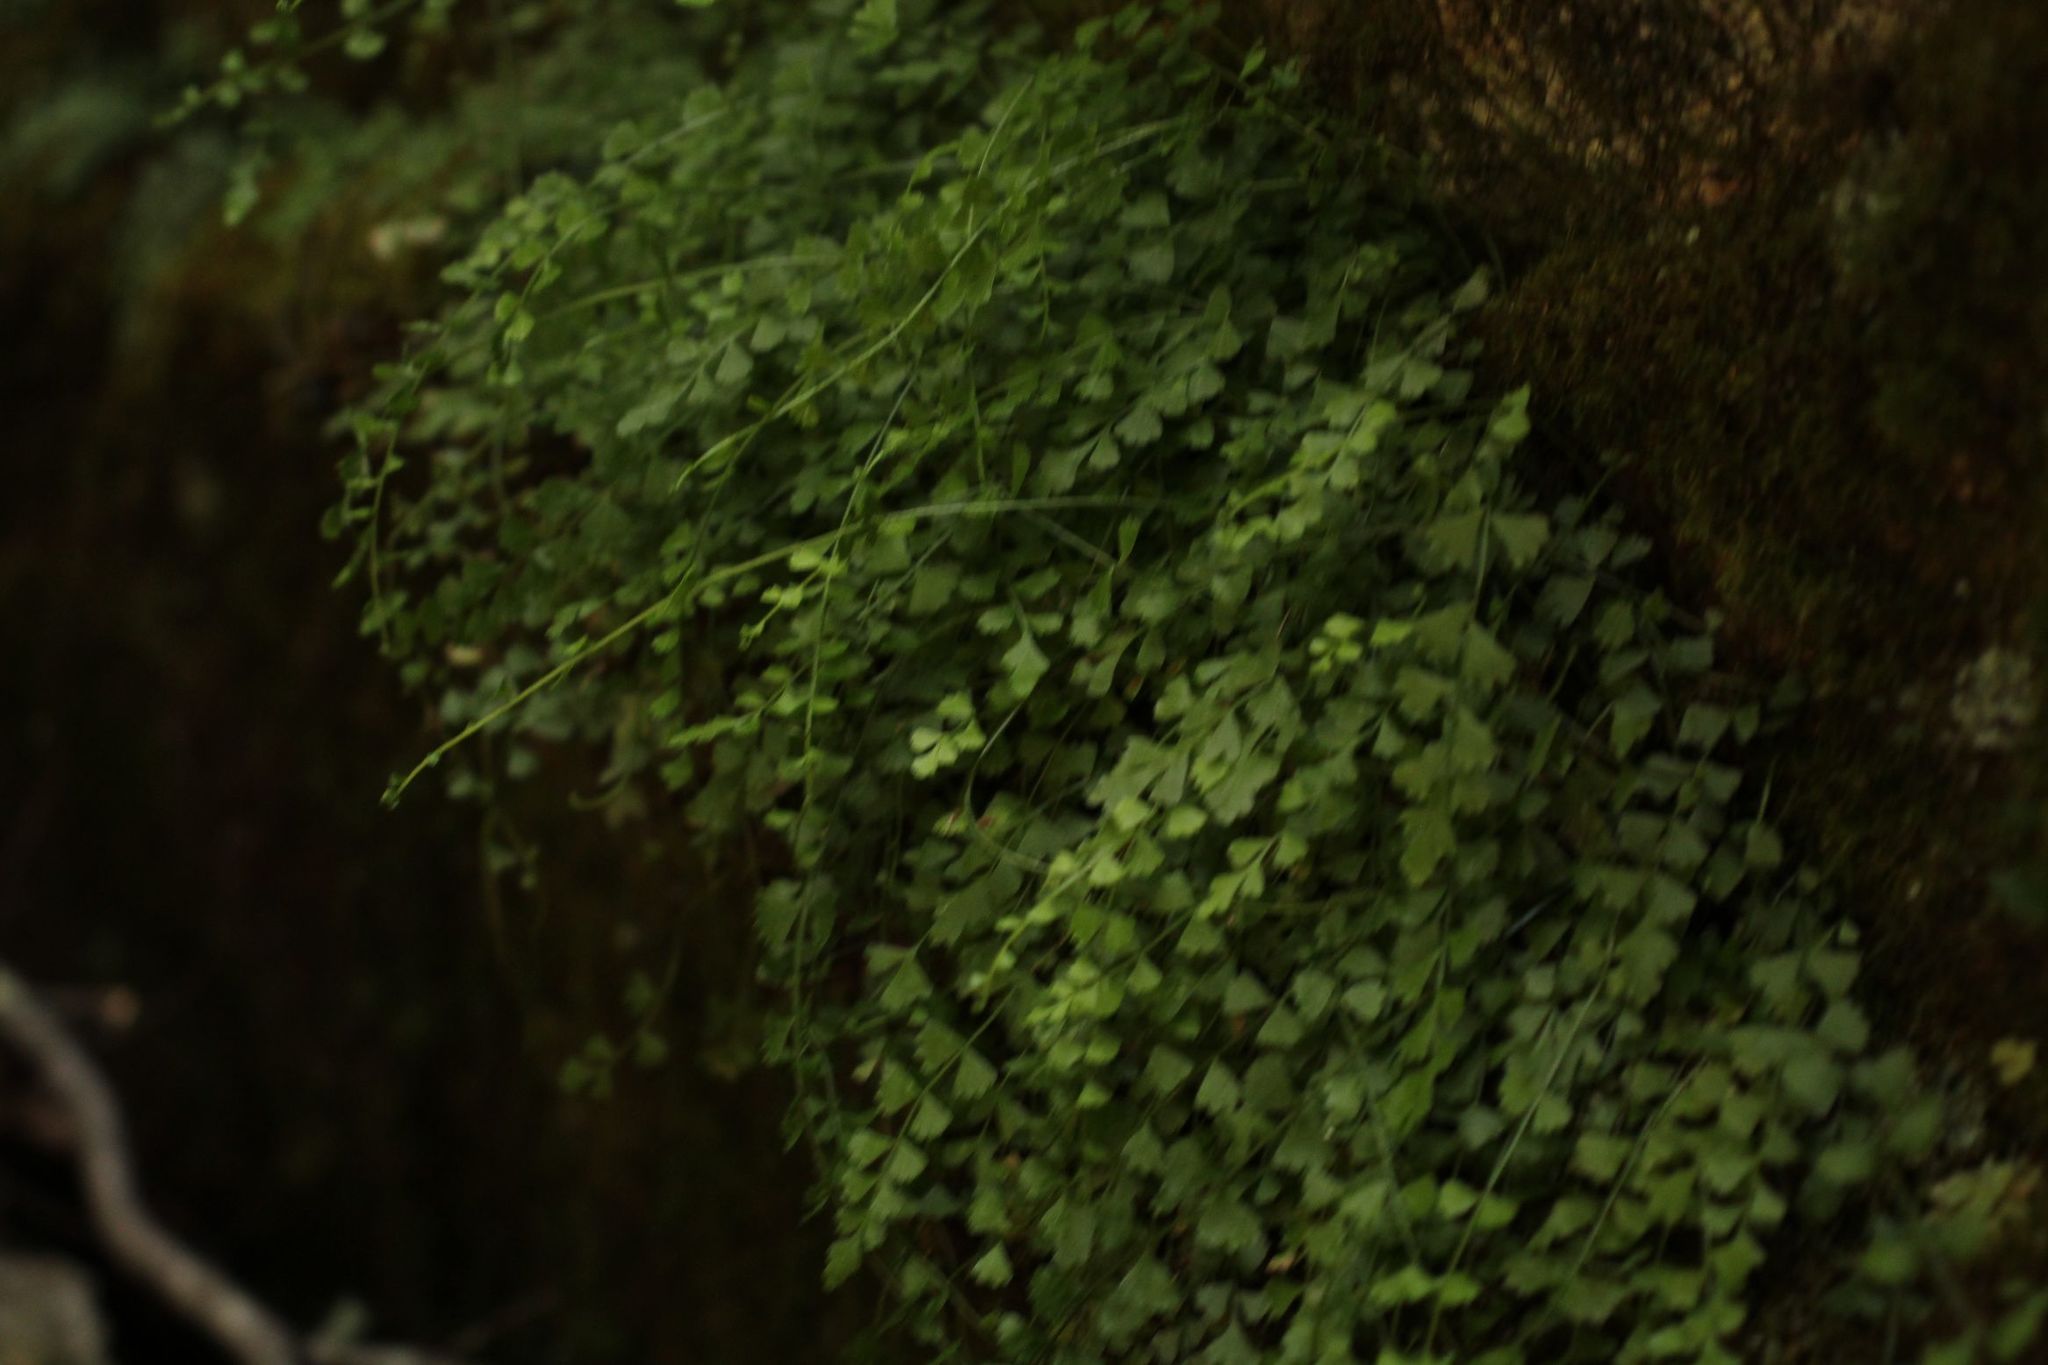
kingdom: Plantae
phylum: Tracheophyta
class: Polypodiopsida
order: Polypodiales
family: Aspleniaceae
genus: Asplenium
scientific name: Asplenium flabellifolium
